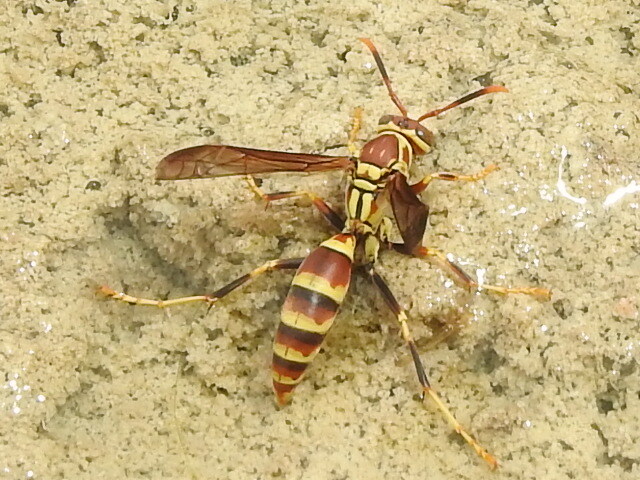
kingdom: Animalia
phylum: Arthropoda
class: Insecta
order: Hymenoptera
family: Eumenidae
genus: Polistes
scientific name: Polistes exclamans
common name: Paper wasp
